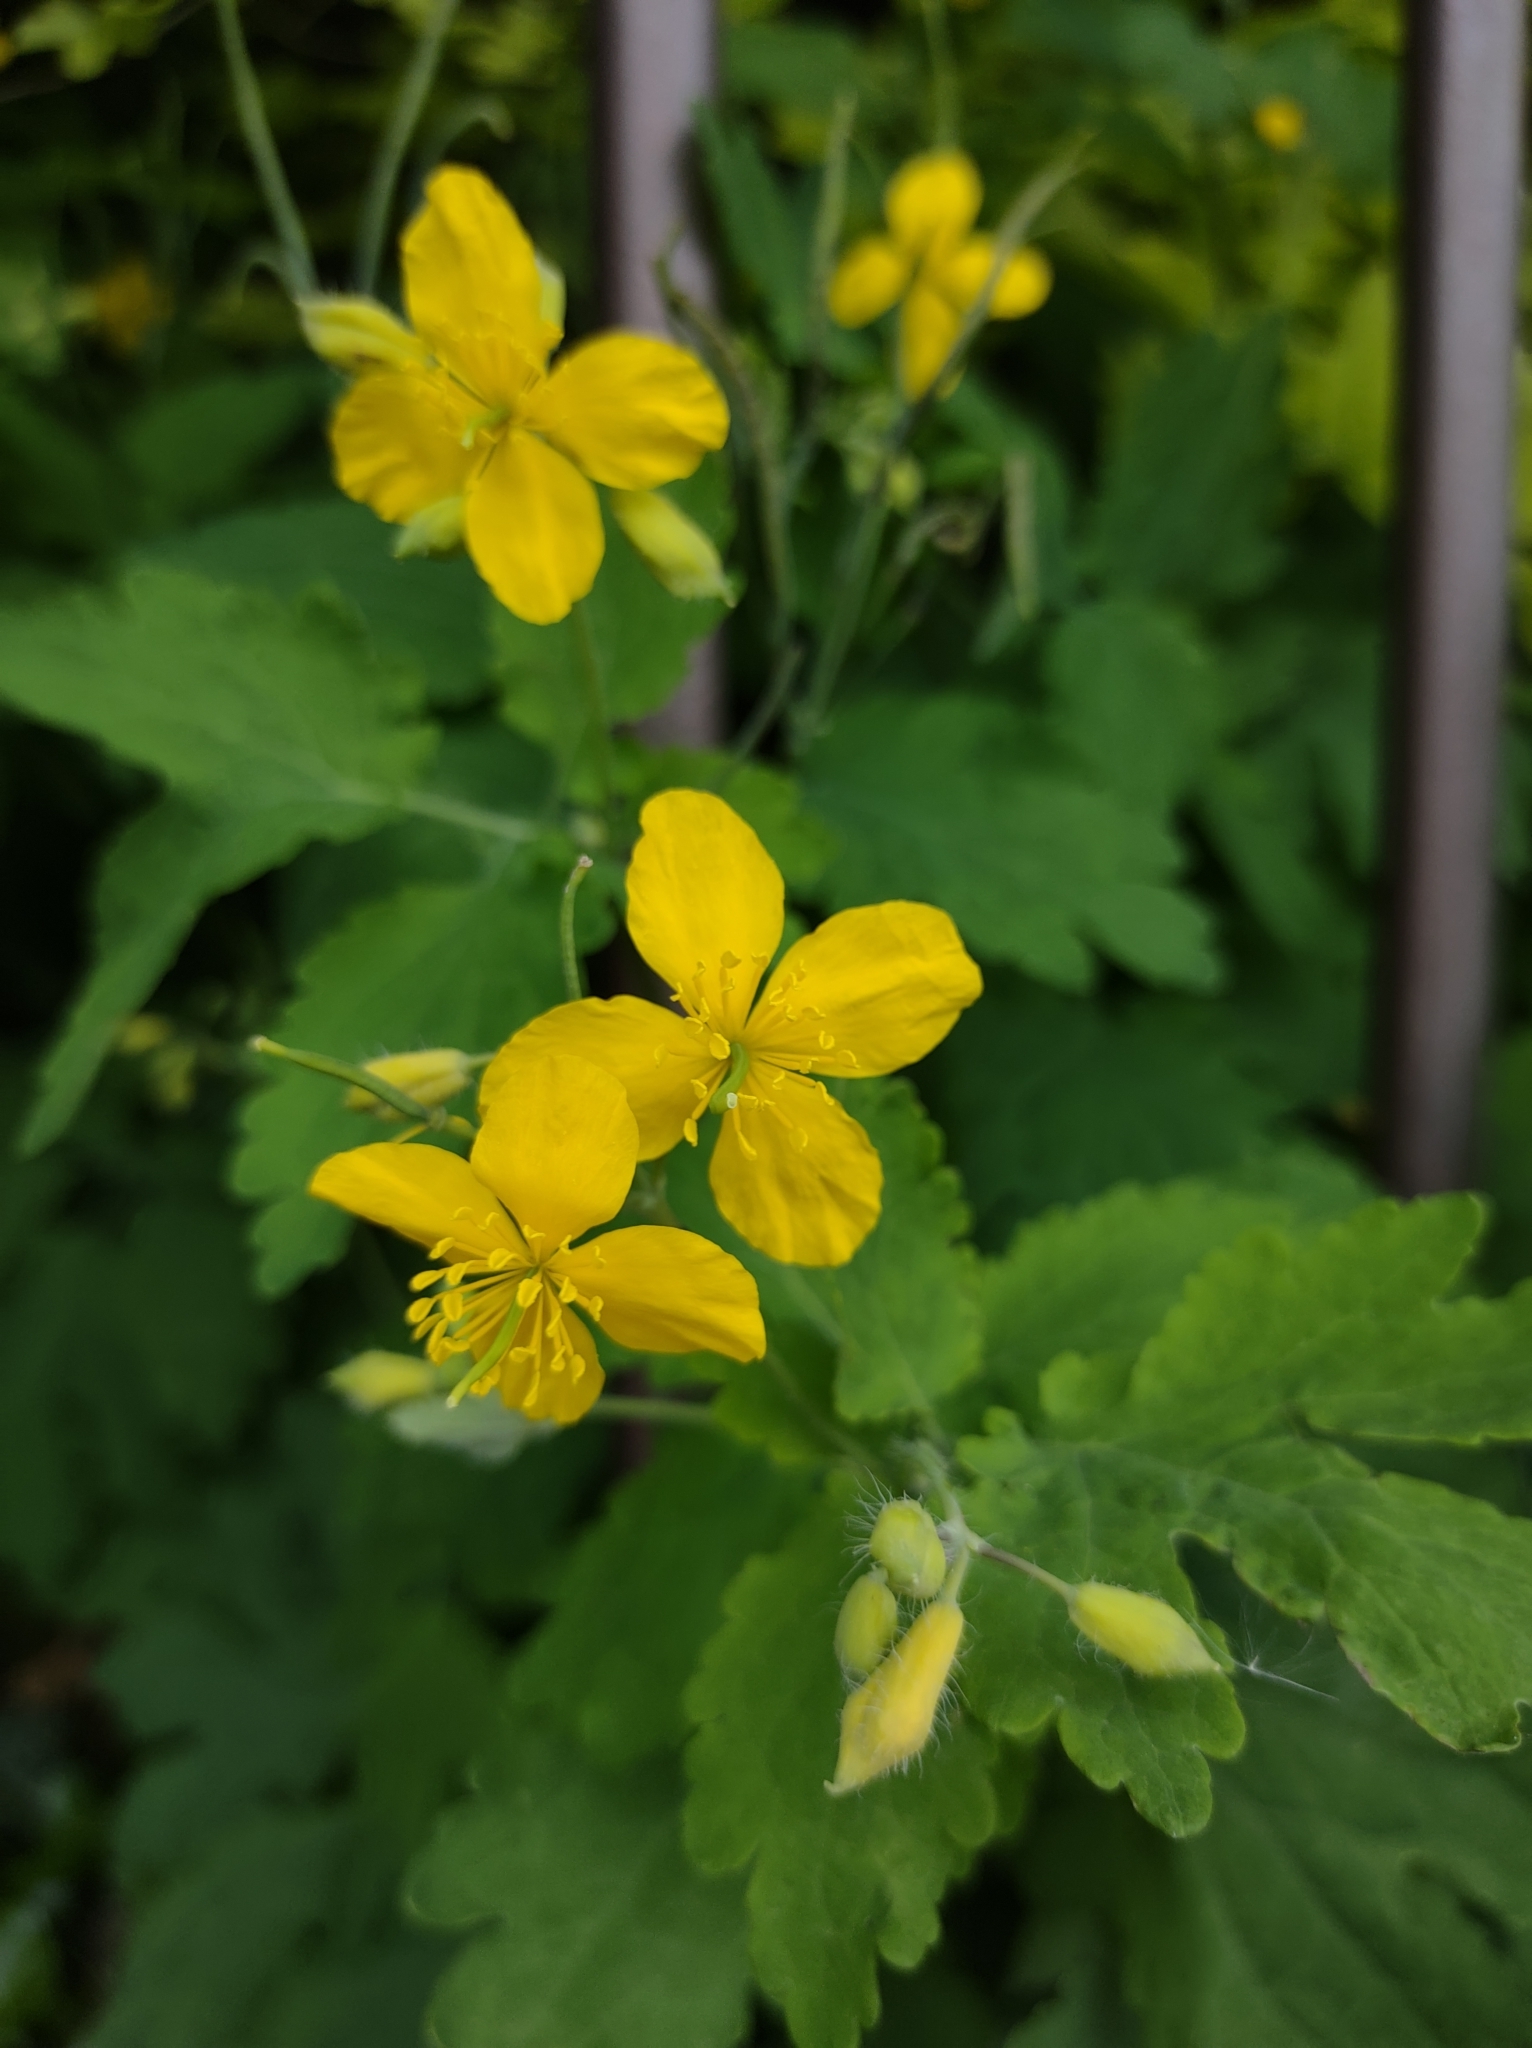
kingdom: Plantae
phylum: Tracheophyta
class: Magnoliopsida
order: Ranunculales
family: Papaveraceae
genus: Chelidonium
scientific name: Chelidonium majus
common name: Greater celandine
